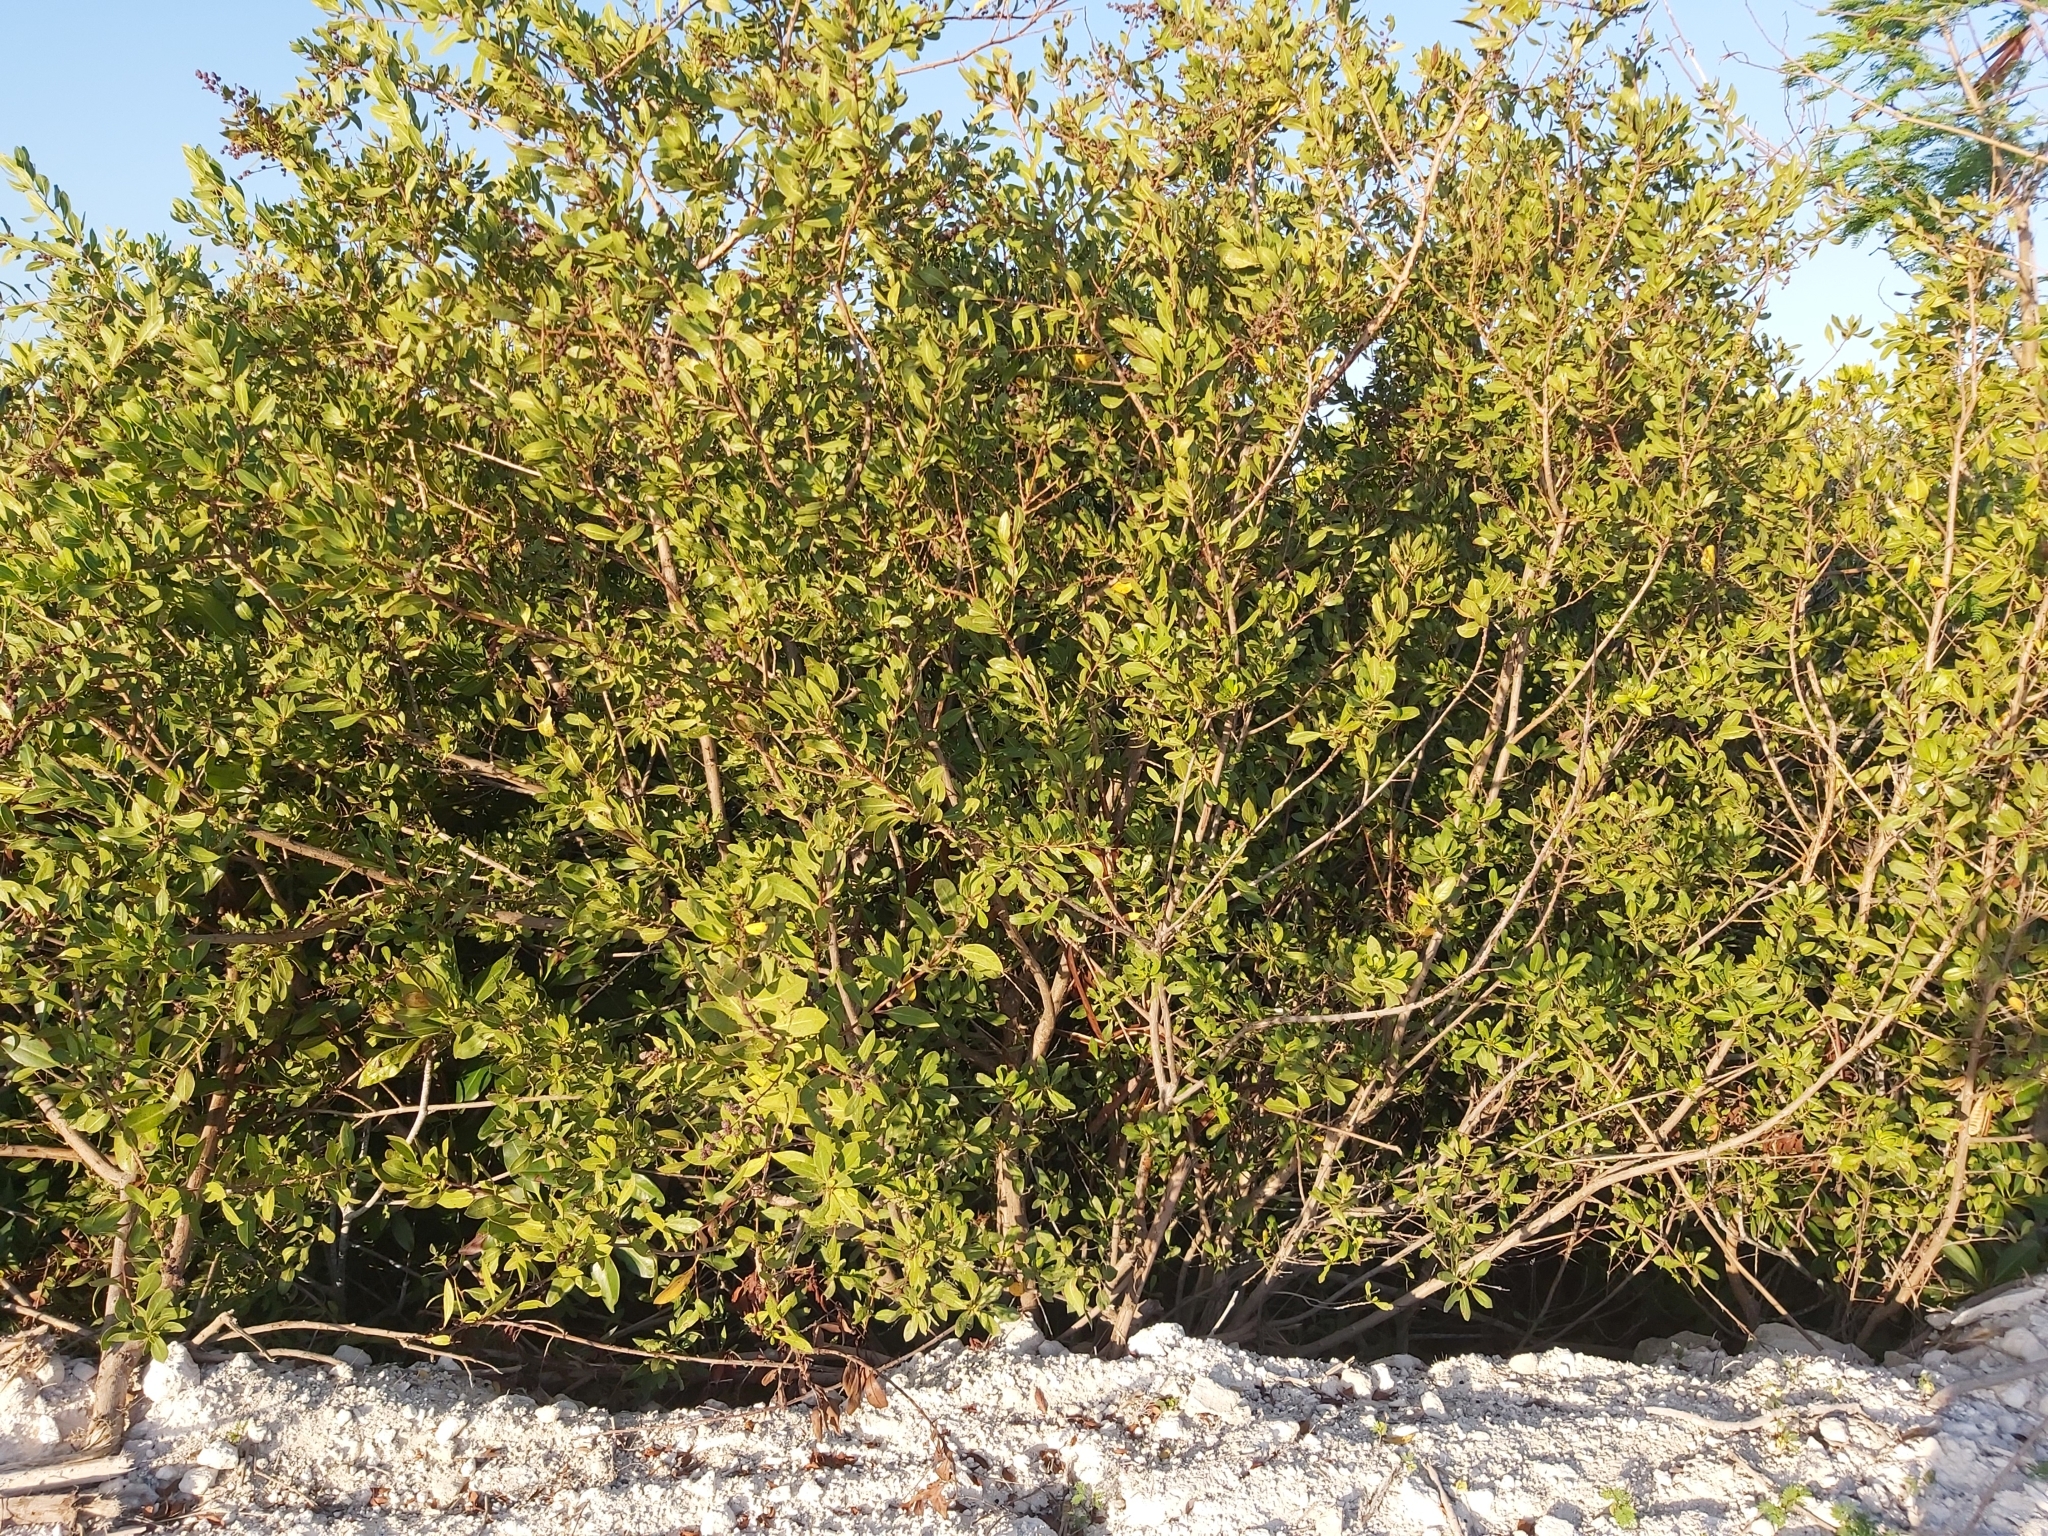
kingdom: Plantae
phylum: Tracheophyta
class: Magnoliopsida
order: Myrtales
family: Combretaceae
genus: Conocarpus
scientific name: Conocarpus erectus
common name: Button mangrove
